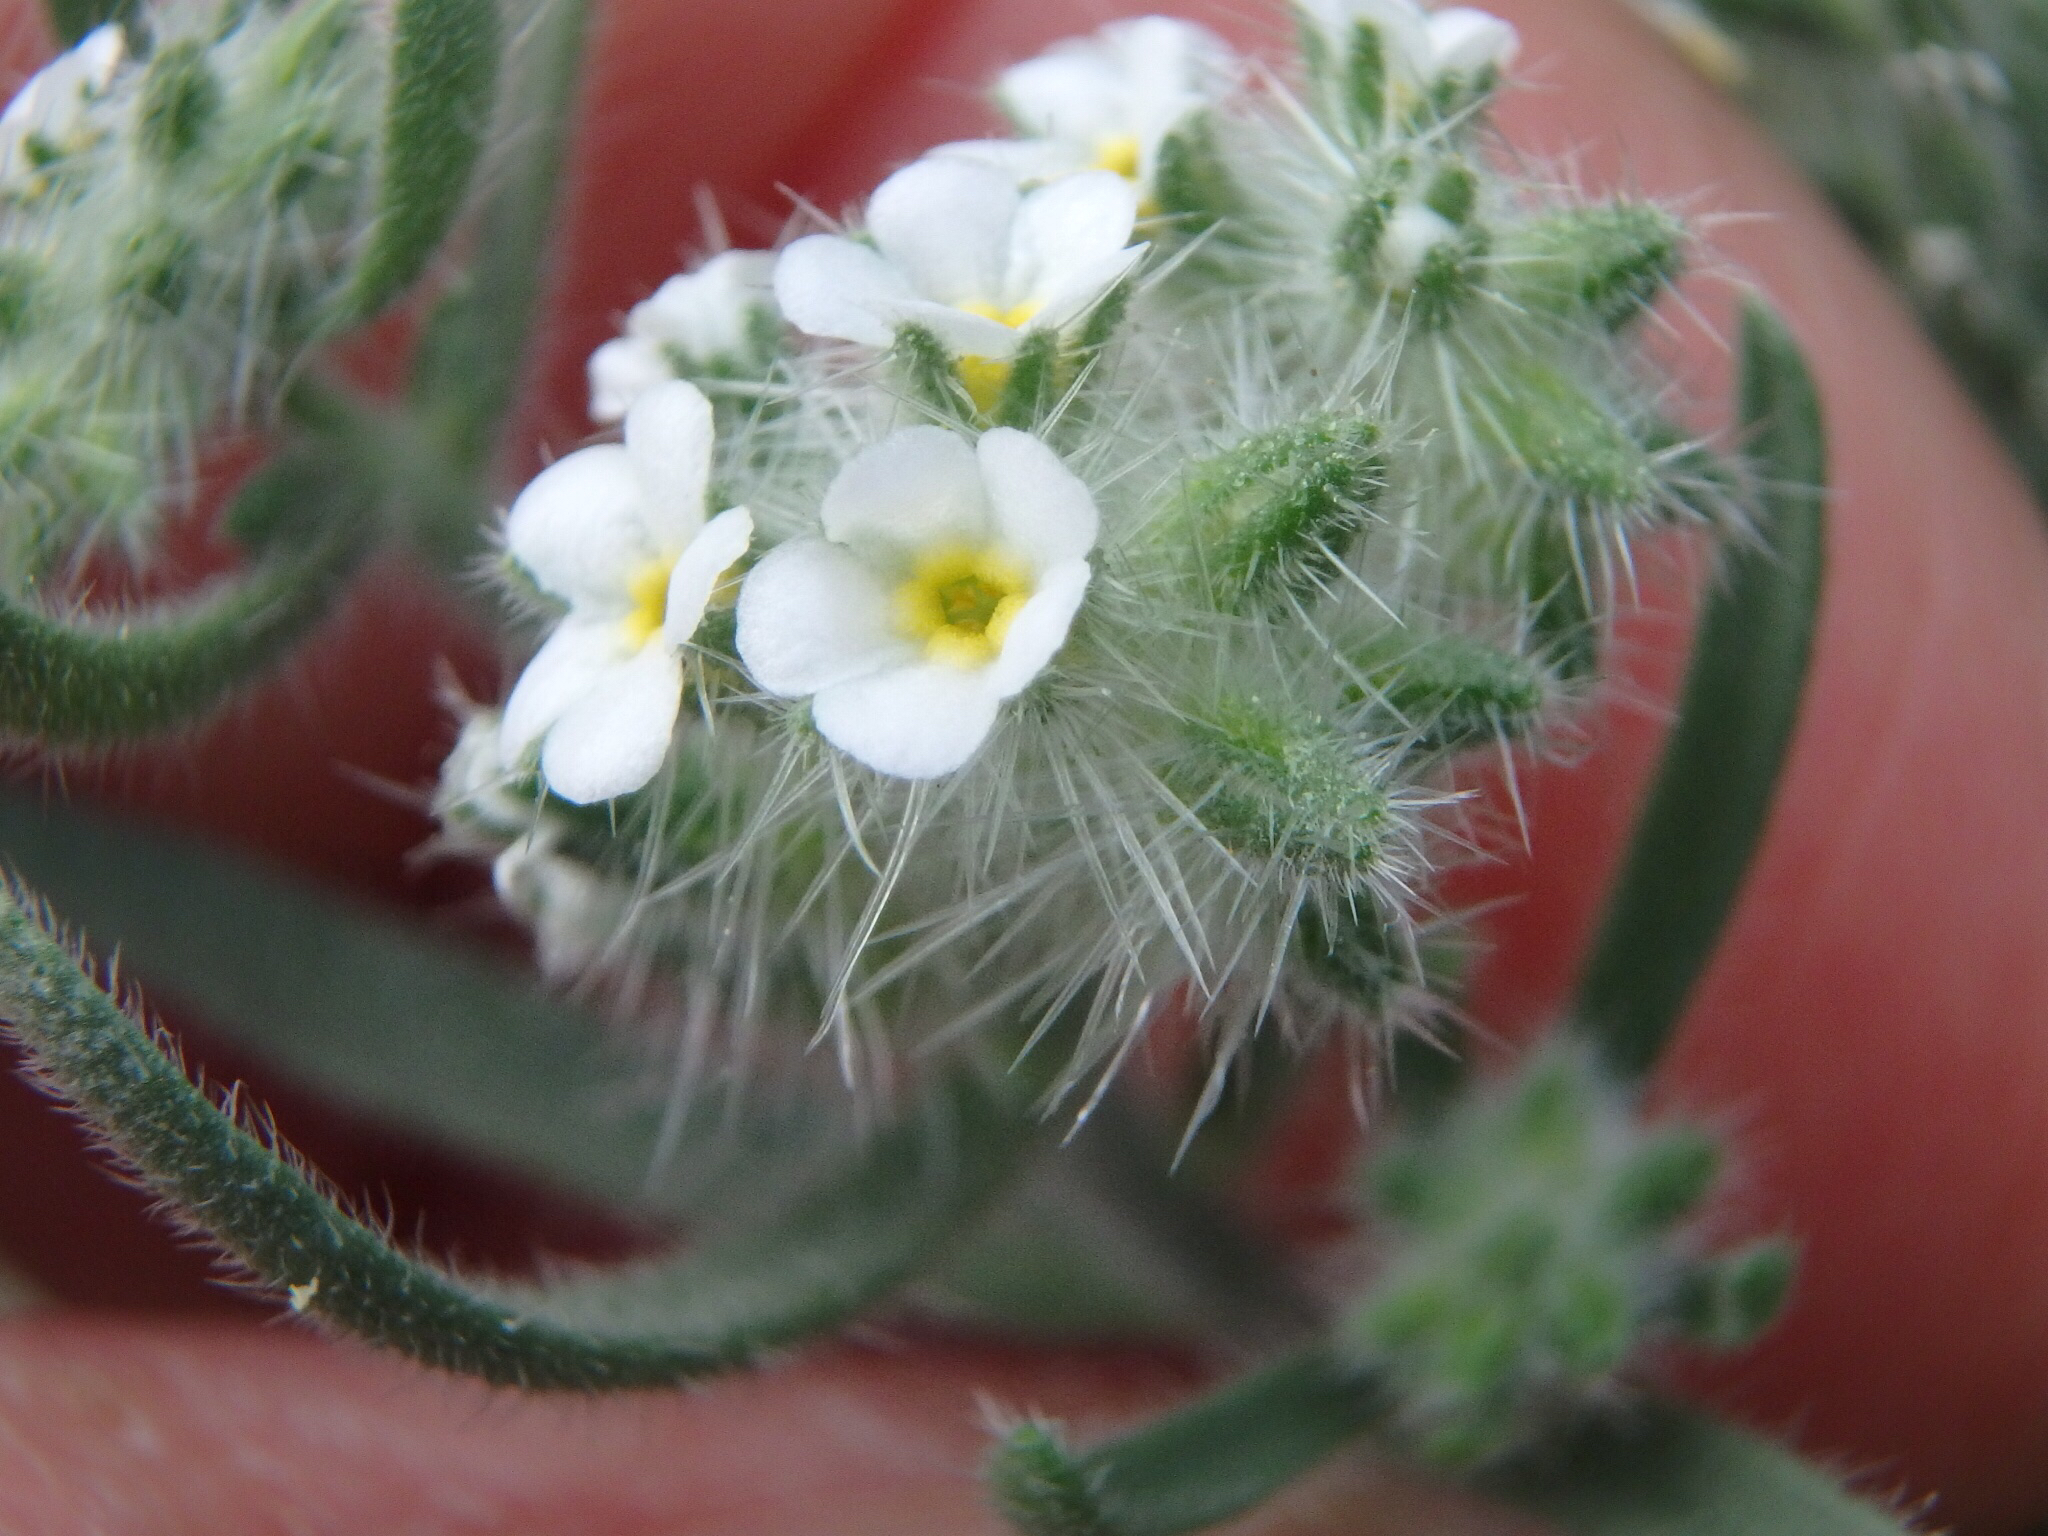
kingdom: Plantae
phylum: Tracheophyta
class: Magnoliopsida
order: Boraginales
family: Boraginaceae
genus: Johnstonella
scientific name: Johnstonella angustifolia
